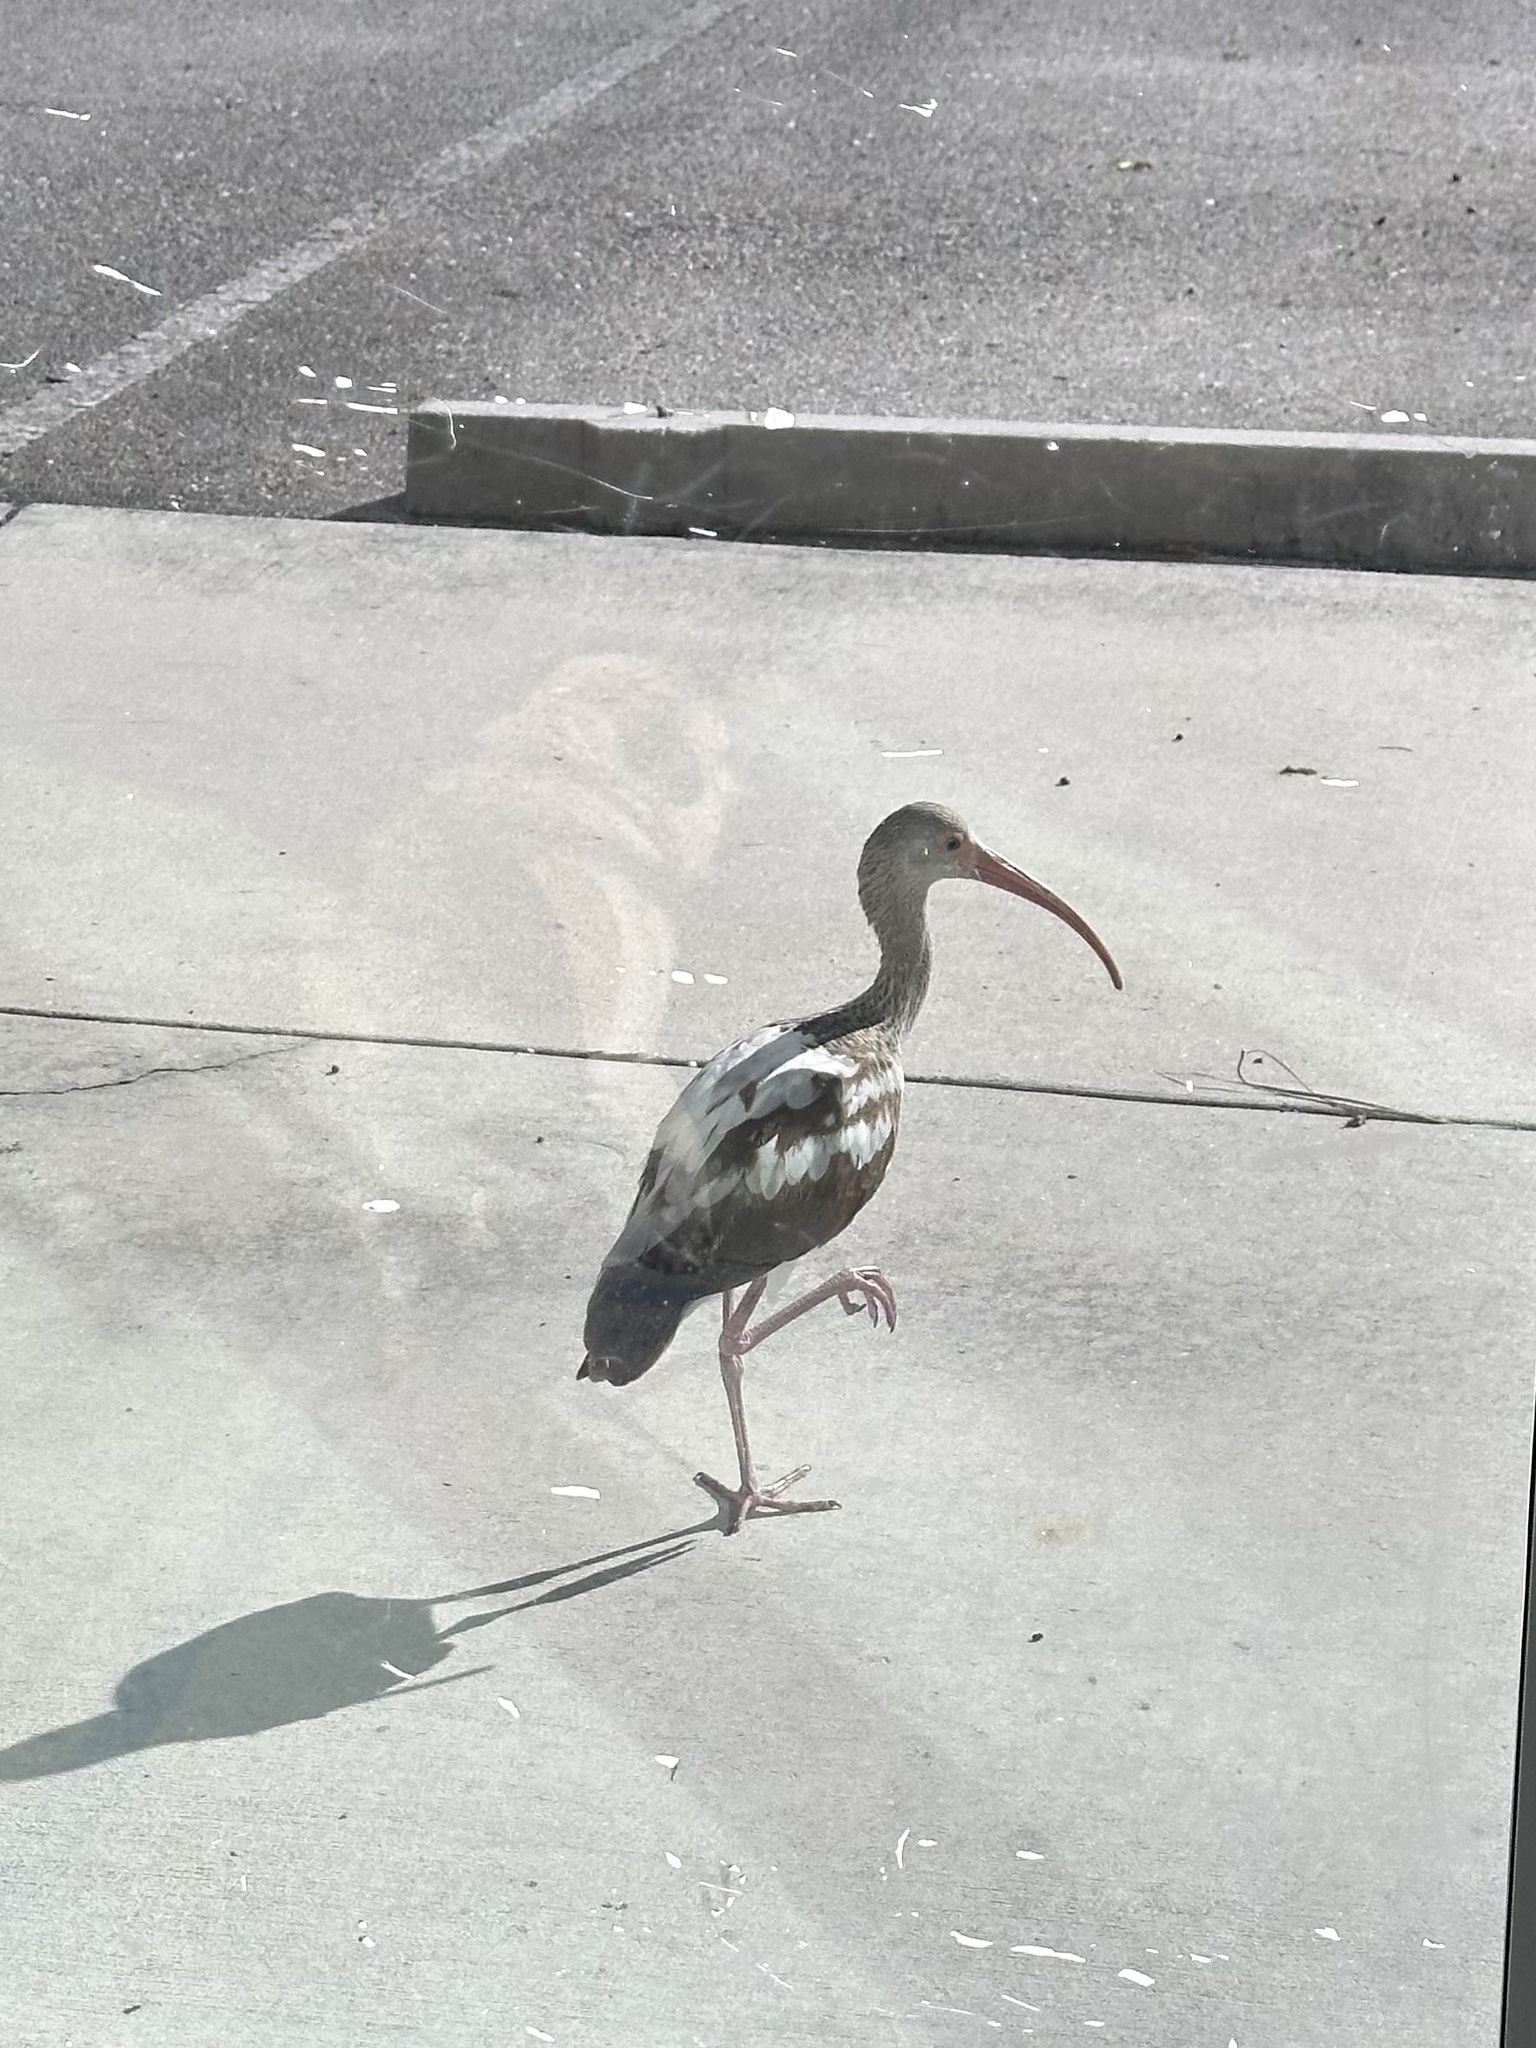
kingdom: Animalia
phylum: Chordata
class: Aves
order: Pelecaniformes
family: Threskiornithidae
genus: Eudocimus
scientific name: Eudocimus albus
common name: White ibis
